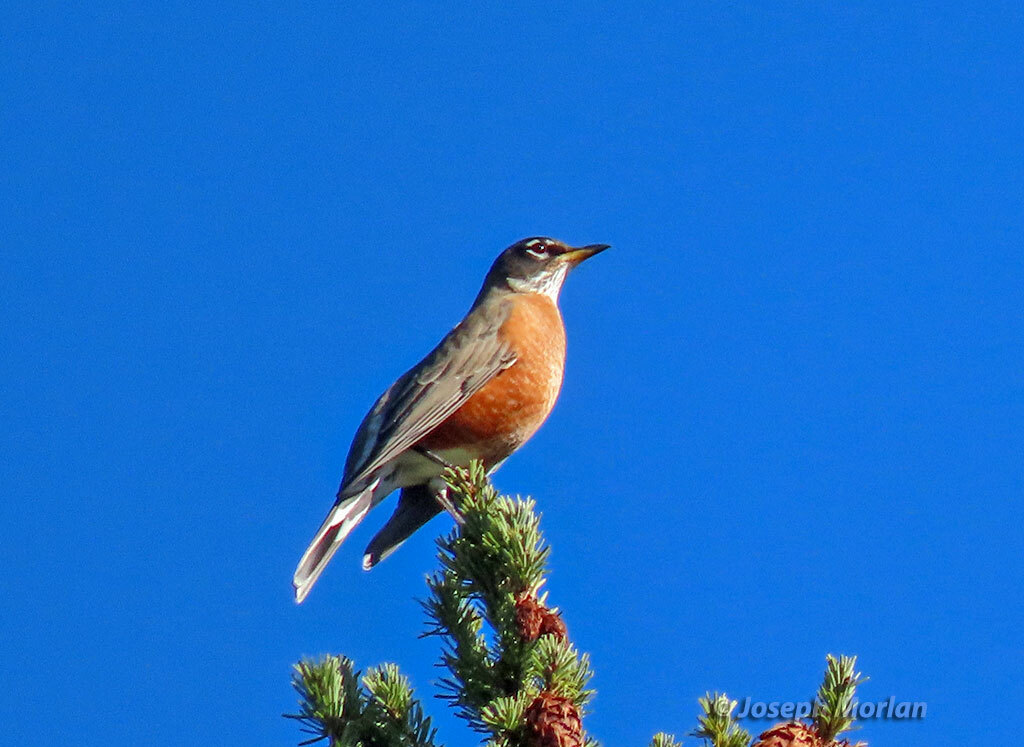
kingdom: Animalia
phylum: Chordata
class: Aves
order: Passeriformes
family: Turdidae
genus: Turdus
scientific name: Turdus migratorius
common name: American robin
